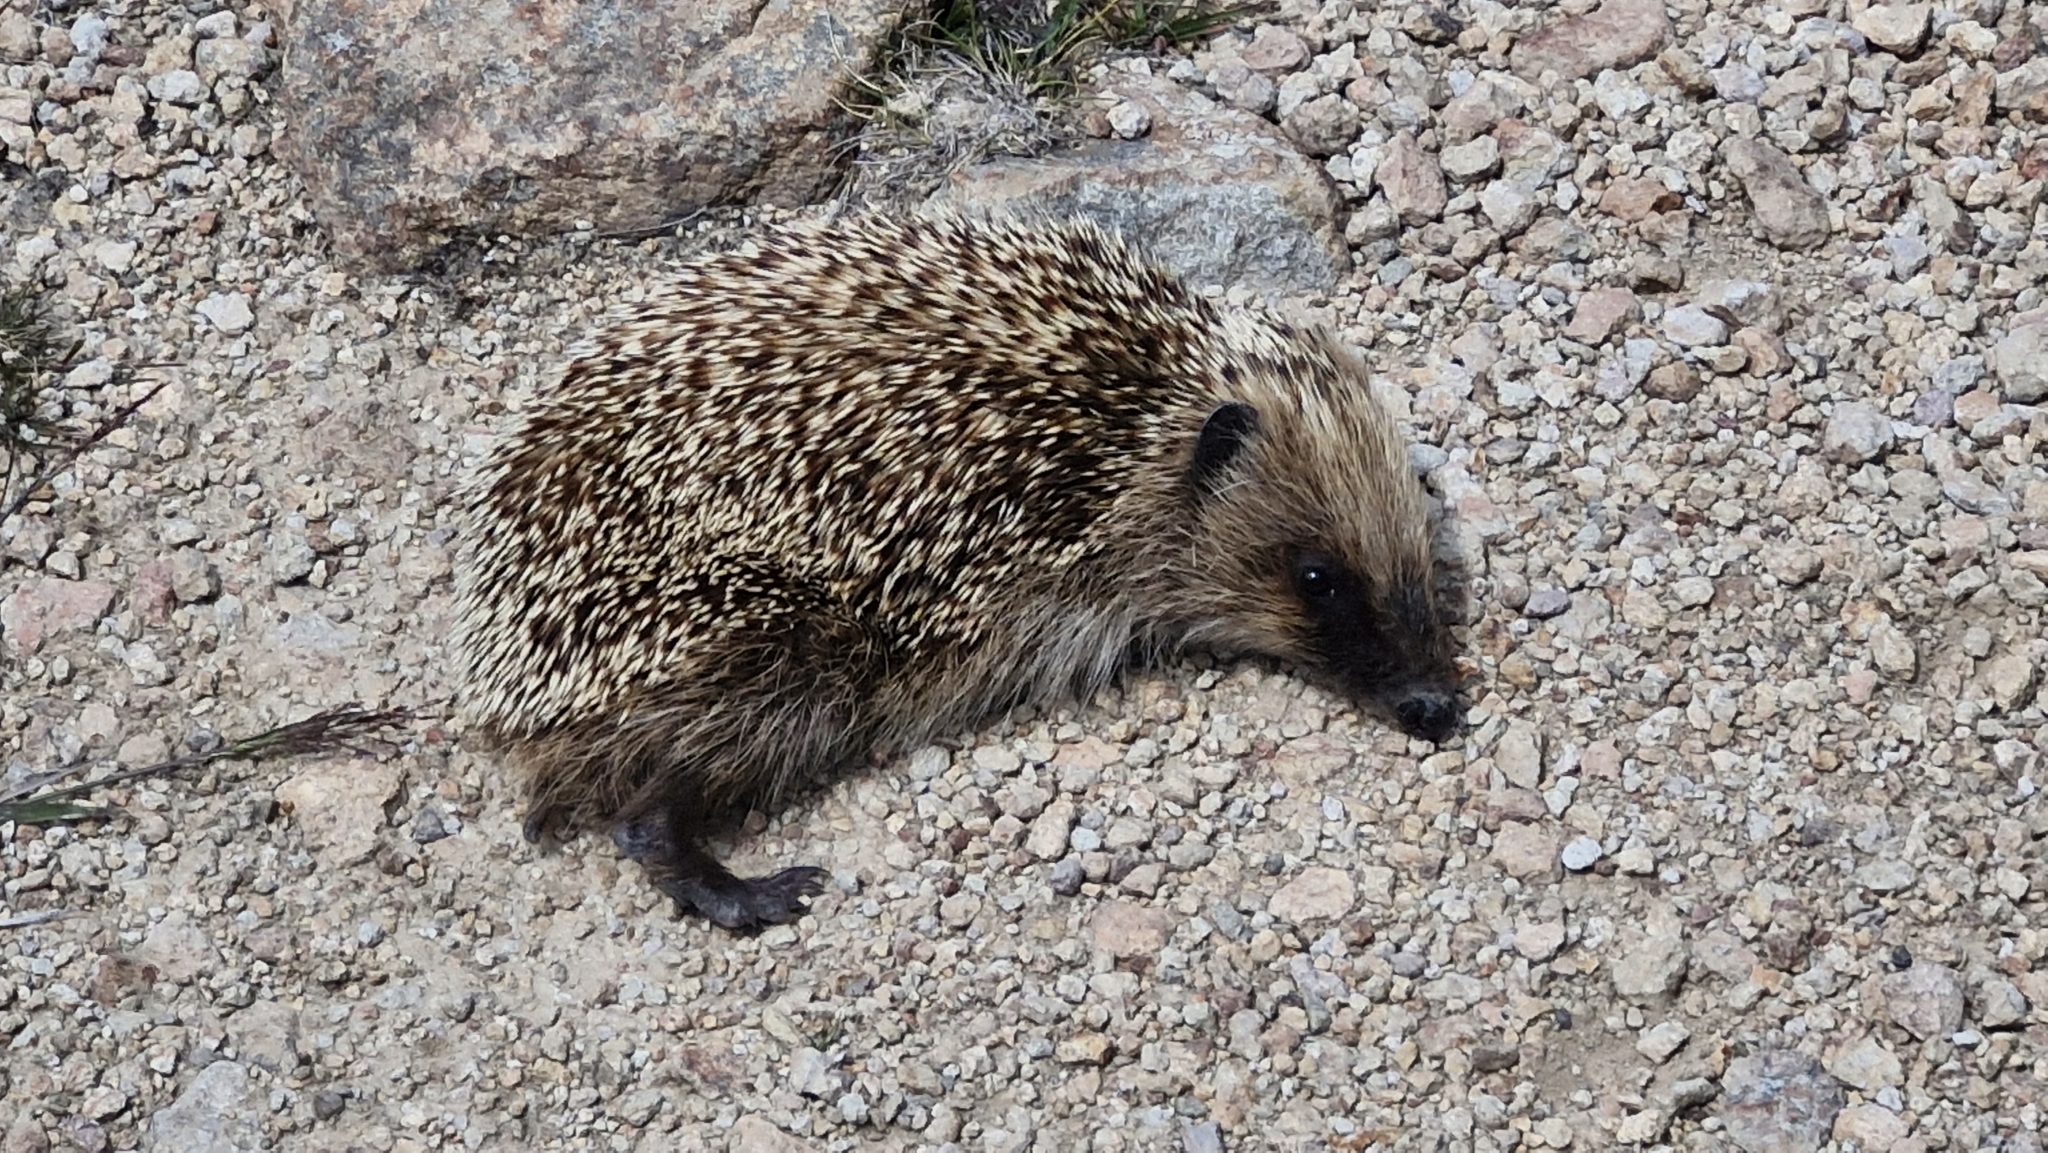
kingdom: Animalia
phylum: Chordata
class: Mammalia
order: Erinaceomorpha
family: Erinaceidae
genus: Erinaceus
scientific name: Erinaceus europaeus
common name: West european hedgehog
